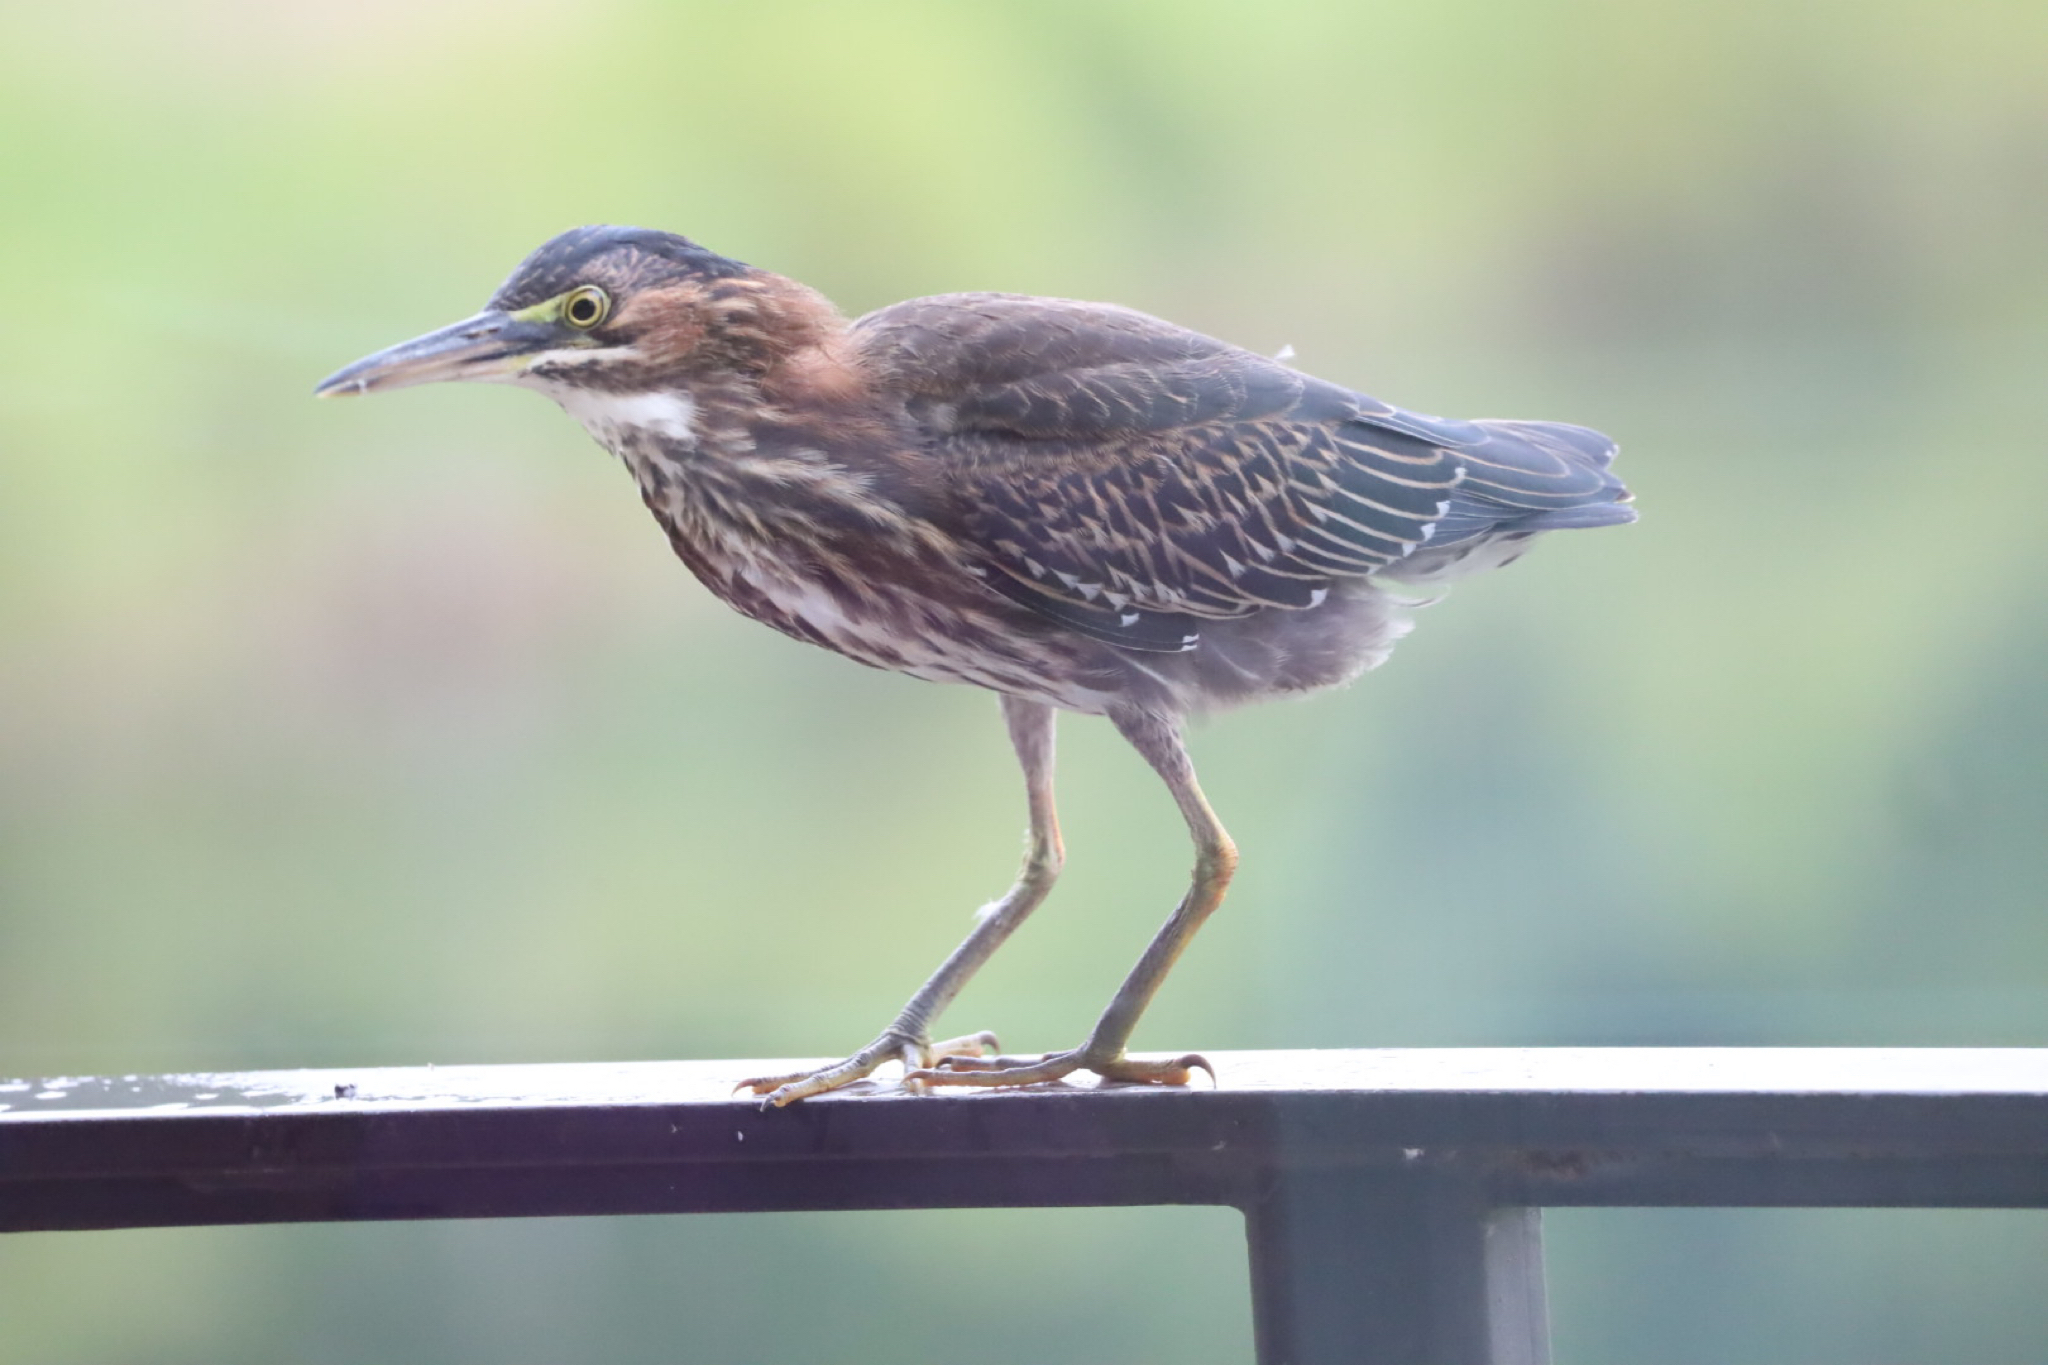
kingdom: Animalia
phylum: Chordata
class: Aves
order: Pelecaniformes
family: Ardeidae
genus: Butorides
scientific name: Butorides virescens
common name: Green heron
